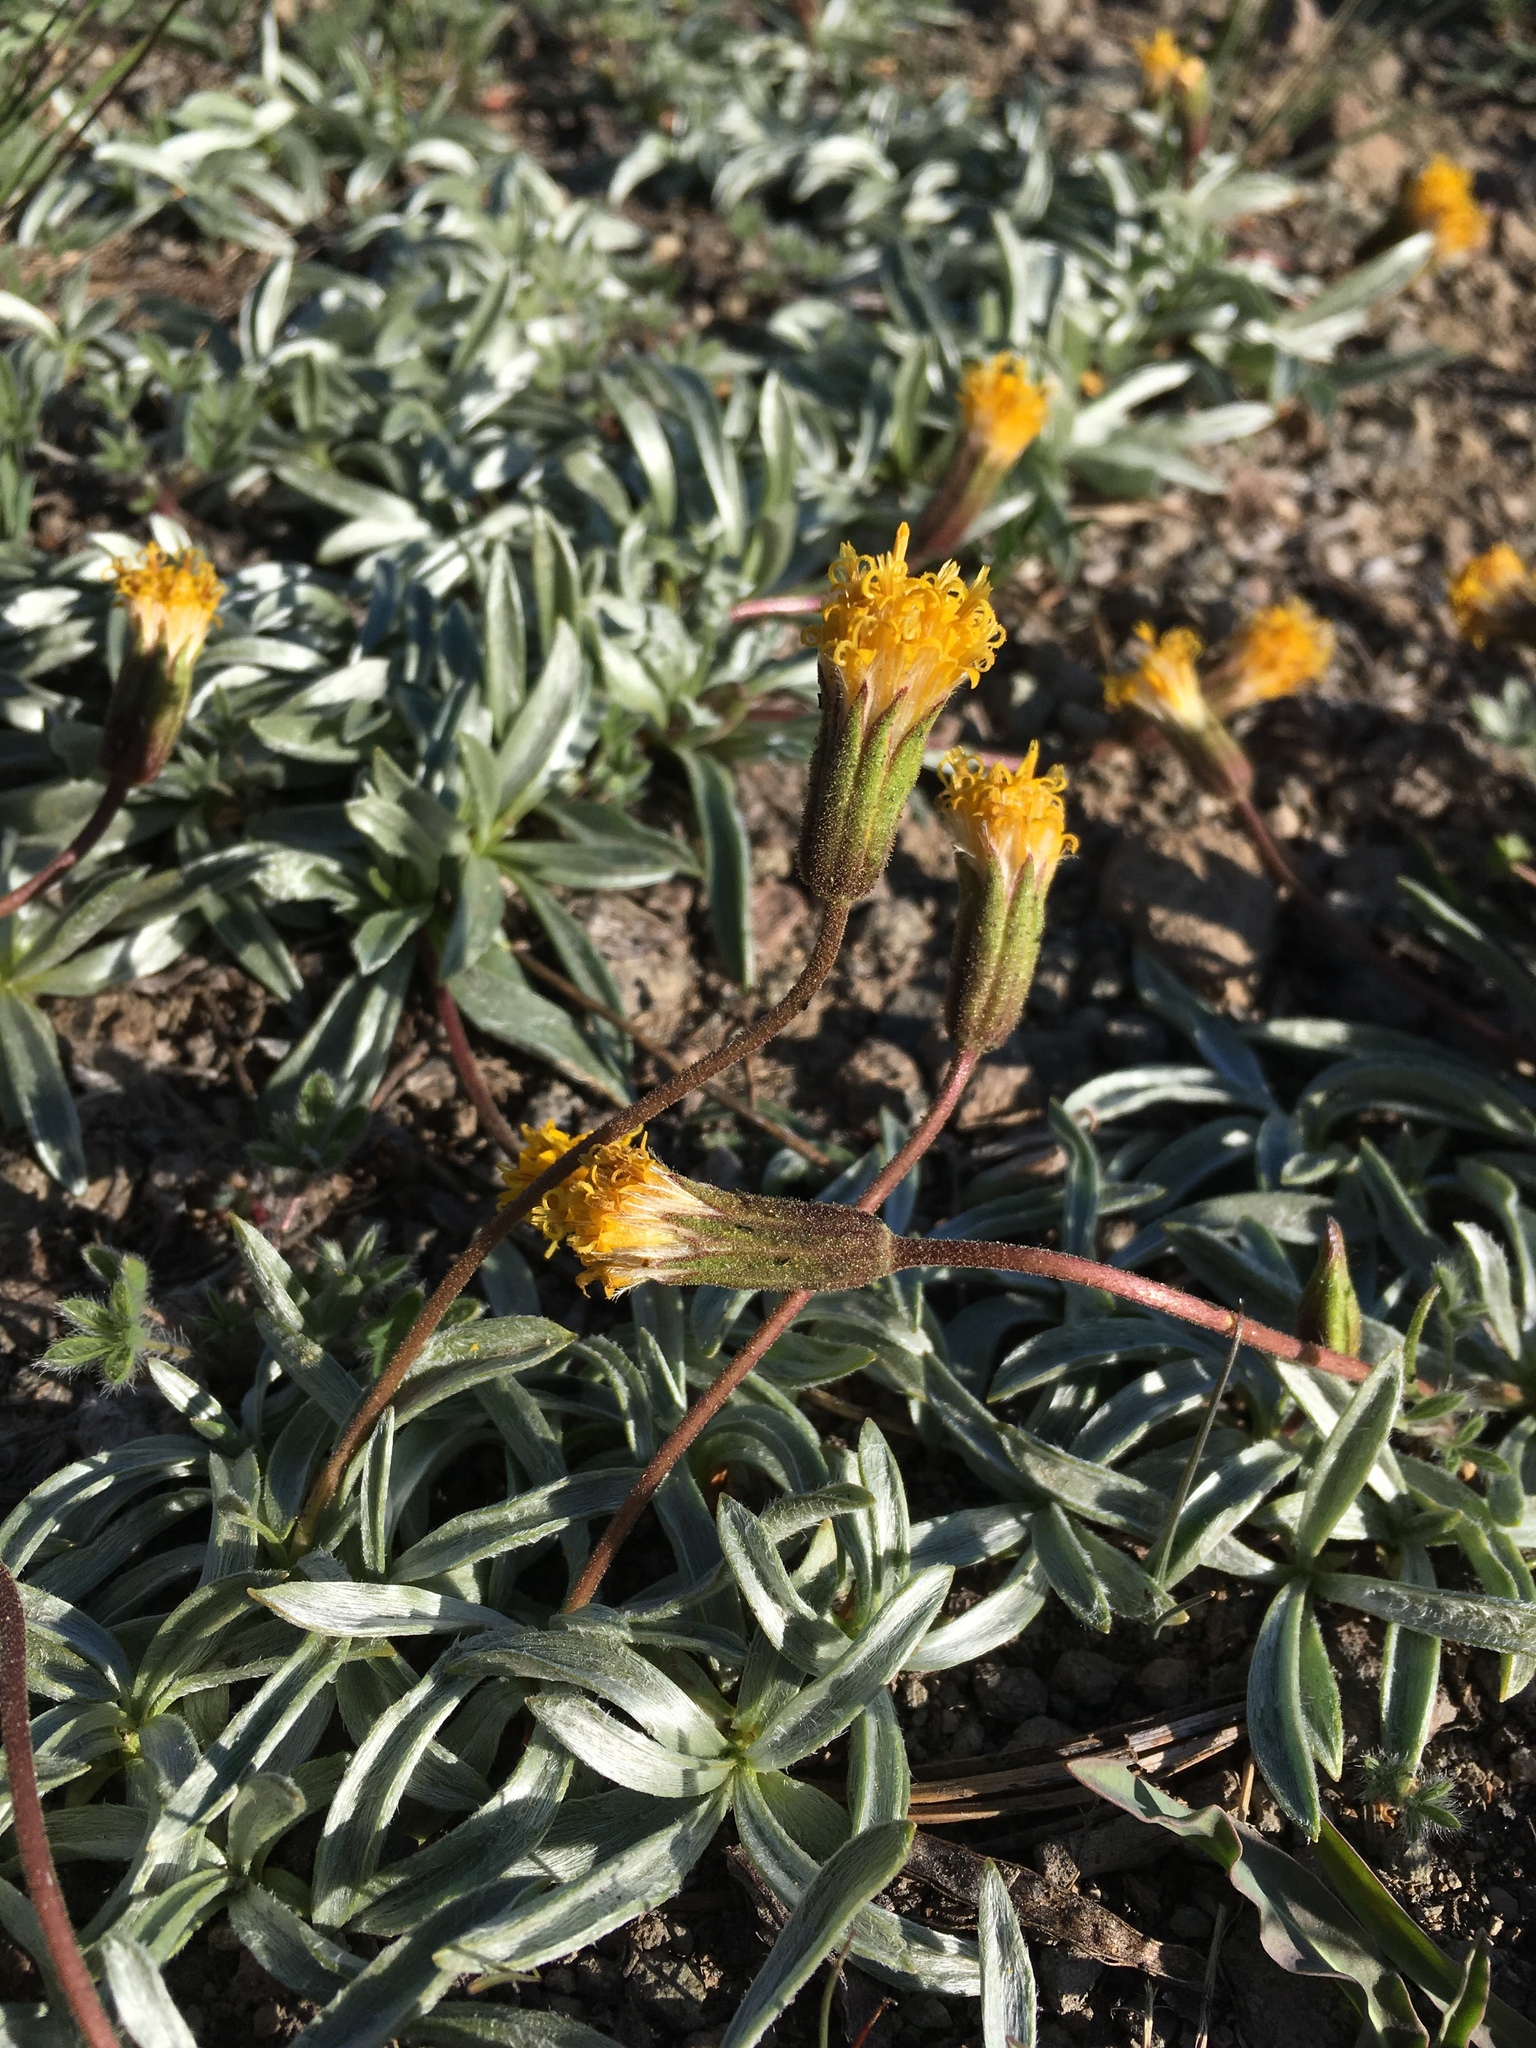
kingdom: Plantae
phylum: Tracheophyta
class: Magnoliopsida
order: Asterales
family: Asteraceae
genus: Raillardella
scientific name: Raillardella argentea
